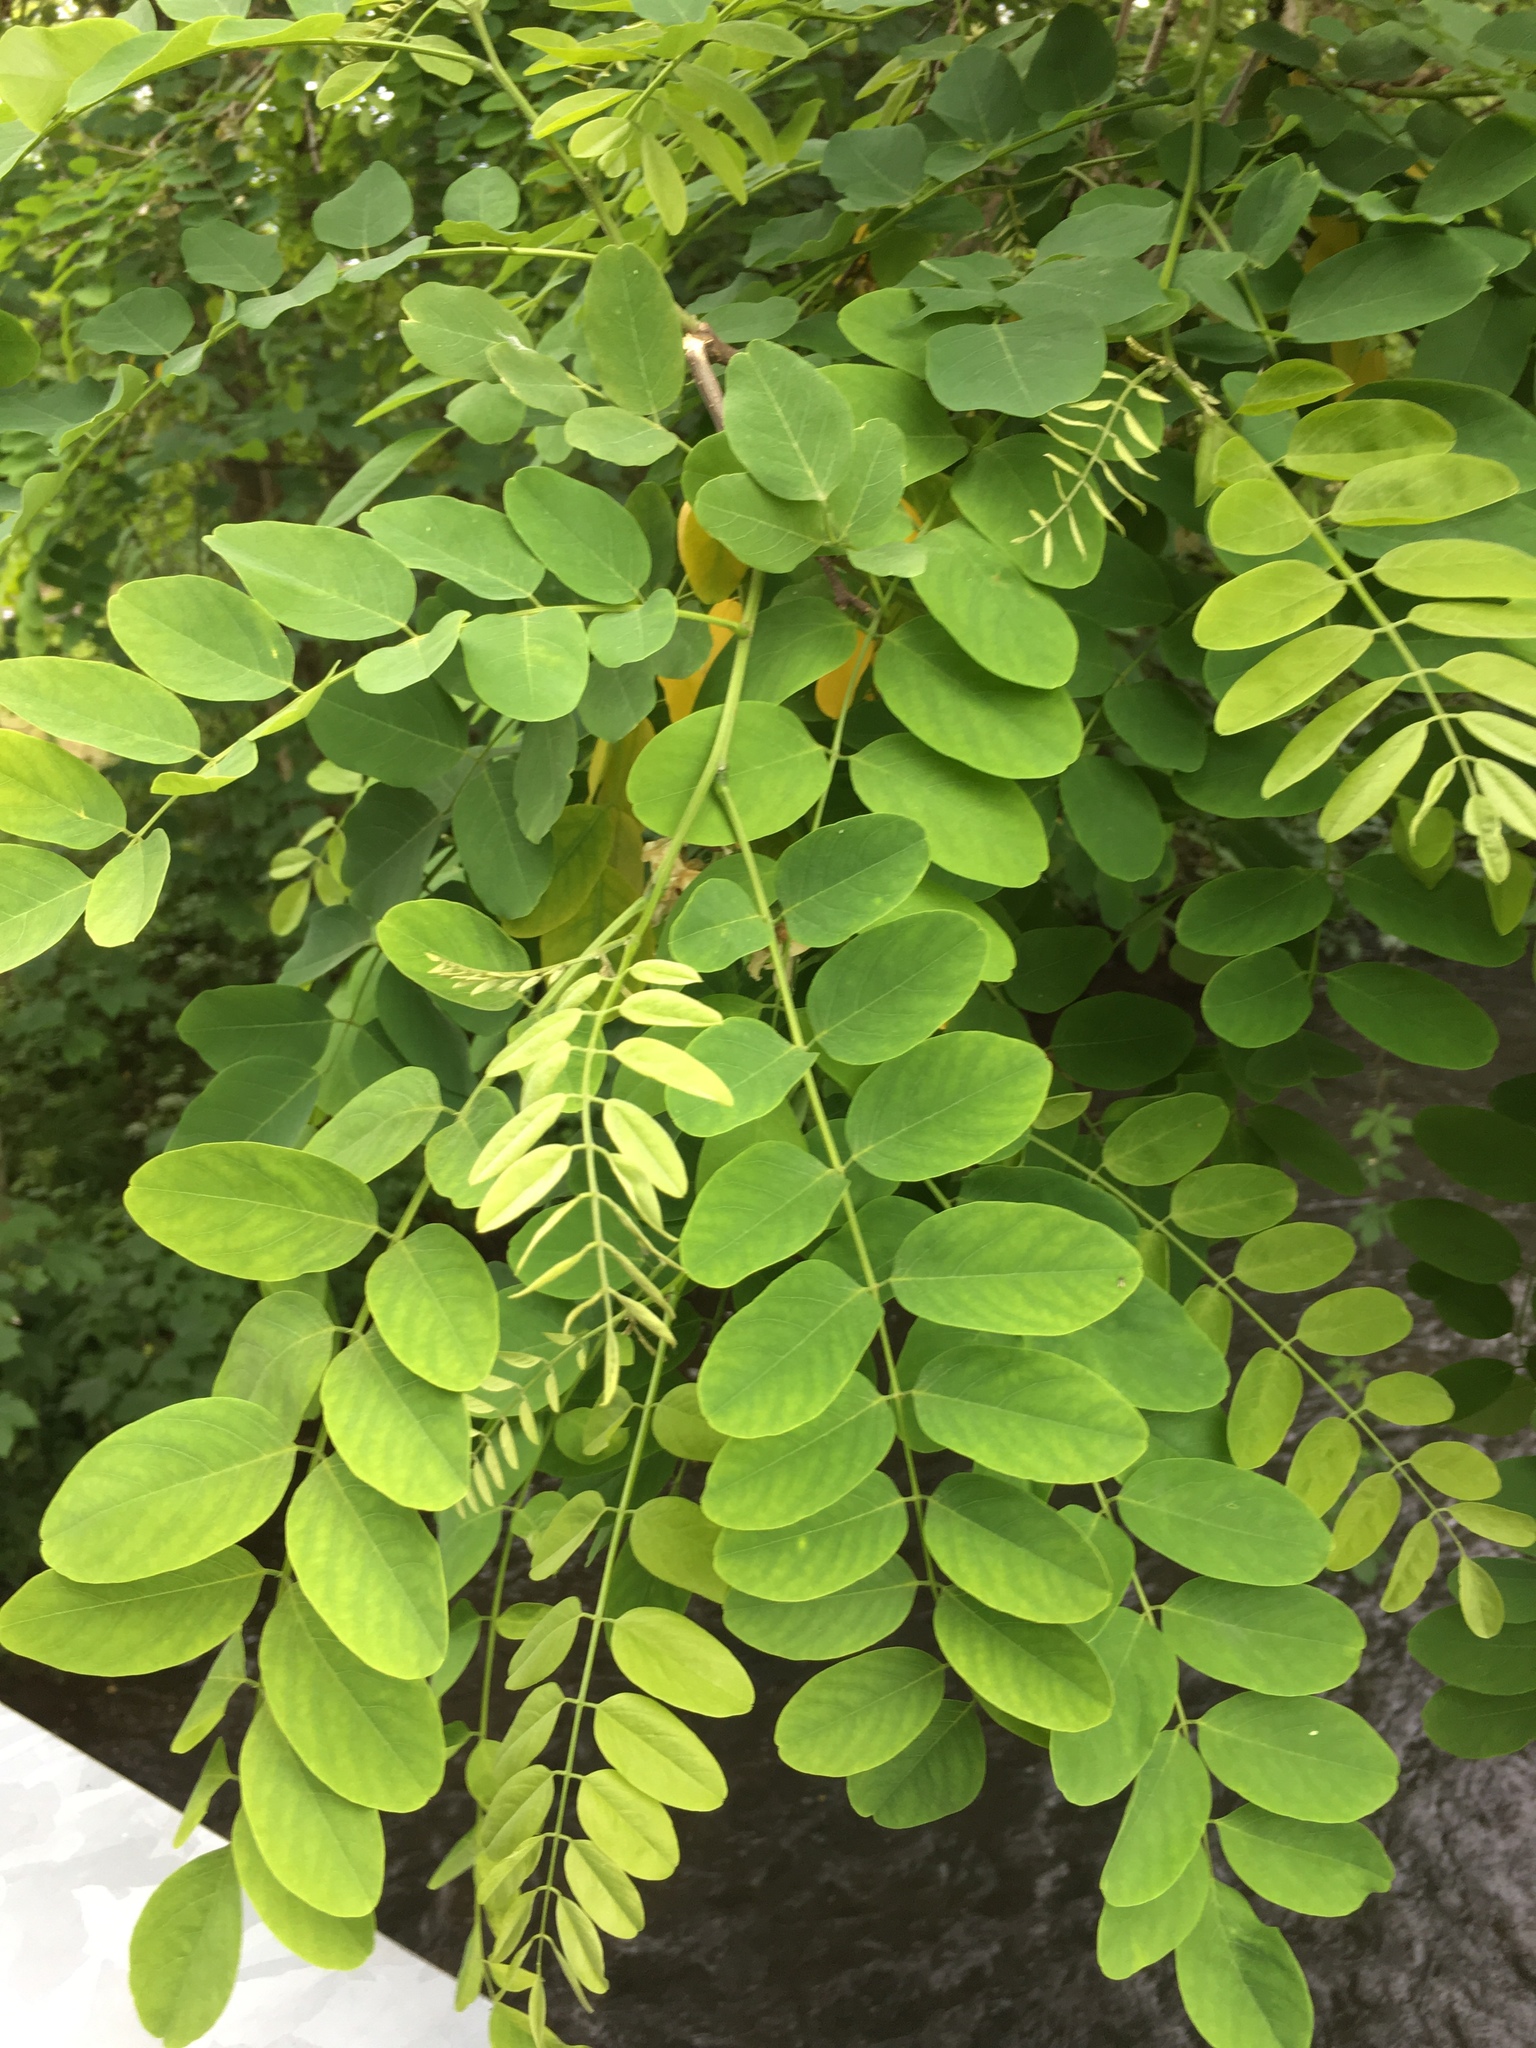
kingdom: Plantae
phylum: Tracheophyta
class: Magnoliopsida
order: Fabales
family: Fabaceae
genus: Robinia
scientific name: Robinia pseudoacacia
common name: Black locust
